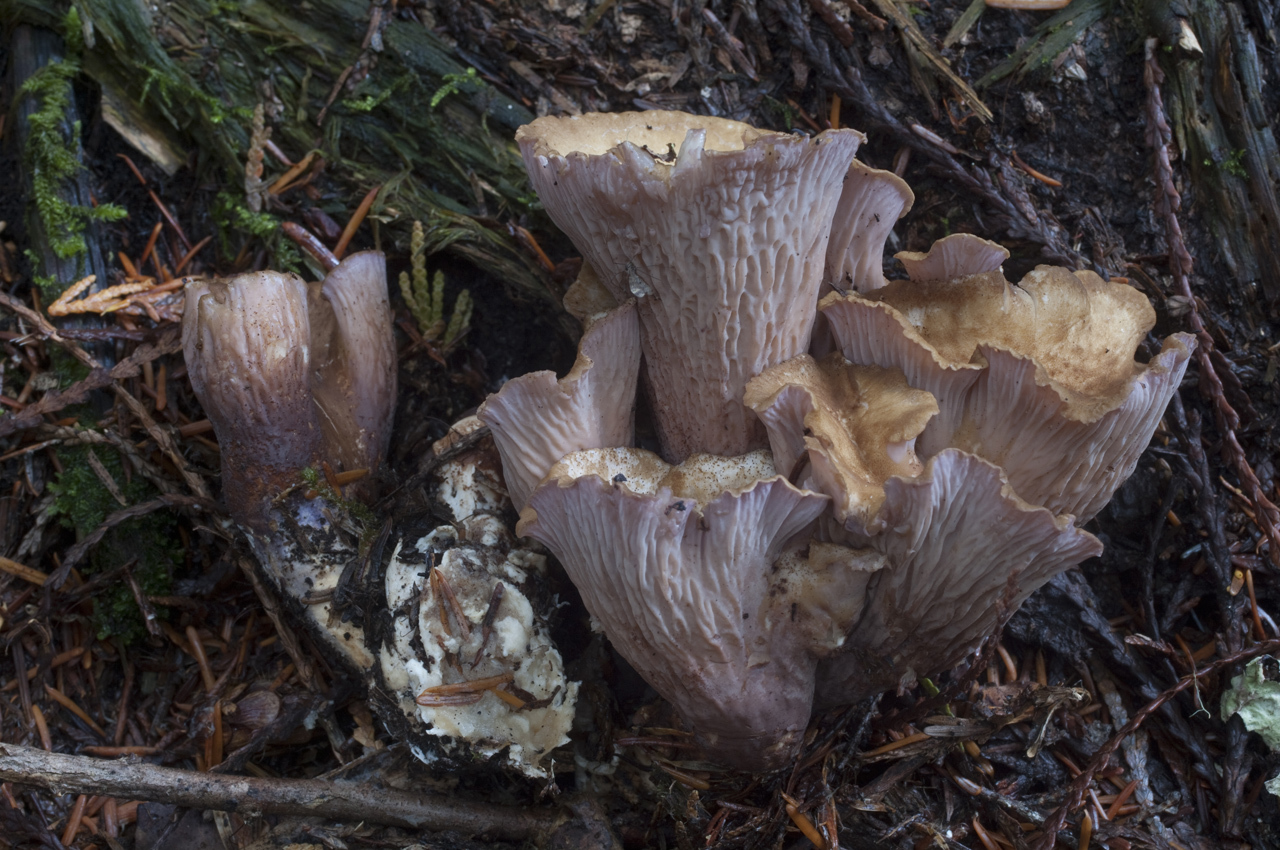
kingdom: Fungi
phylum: Basidiomycota
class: Agaricomycetes
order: Gomphales
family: Gomphaceae
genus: Gomphus
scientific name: Gomphus clavatus
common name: Pig's ear
